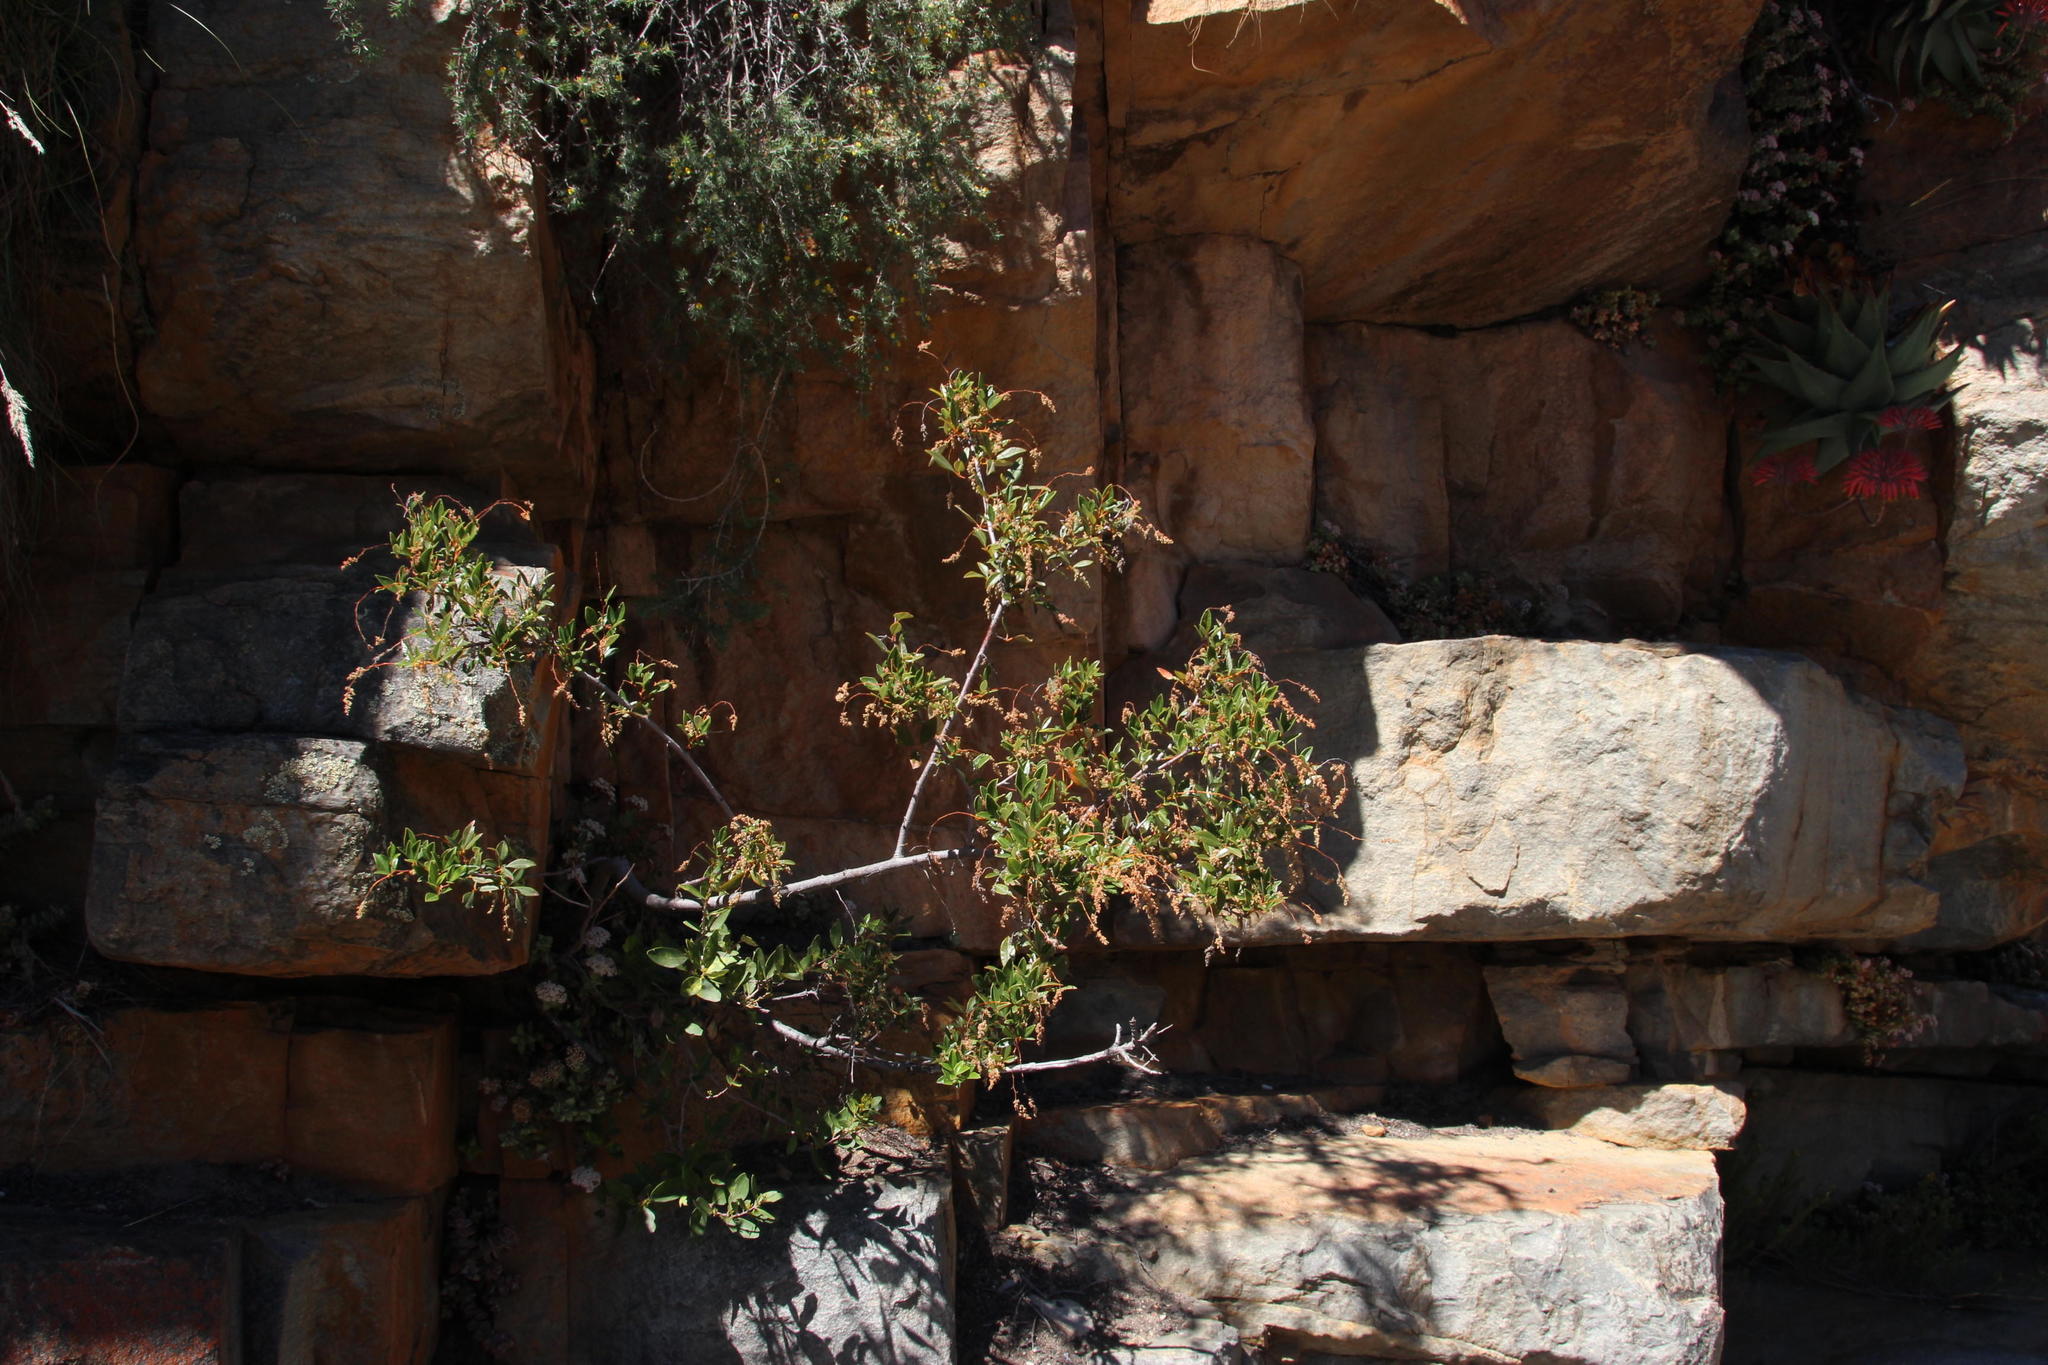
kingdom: Plantae
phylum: Tracheophyta
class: Magnoliopsida
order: Sapindales
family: Anacardiaceae
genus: Searsia
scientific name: Searsia tomentosa
